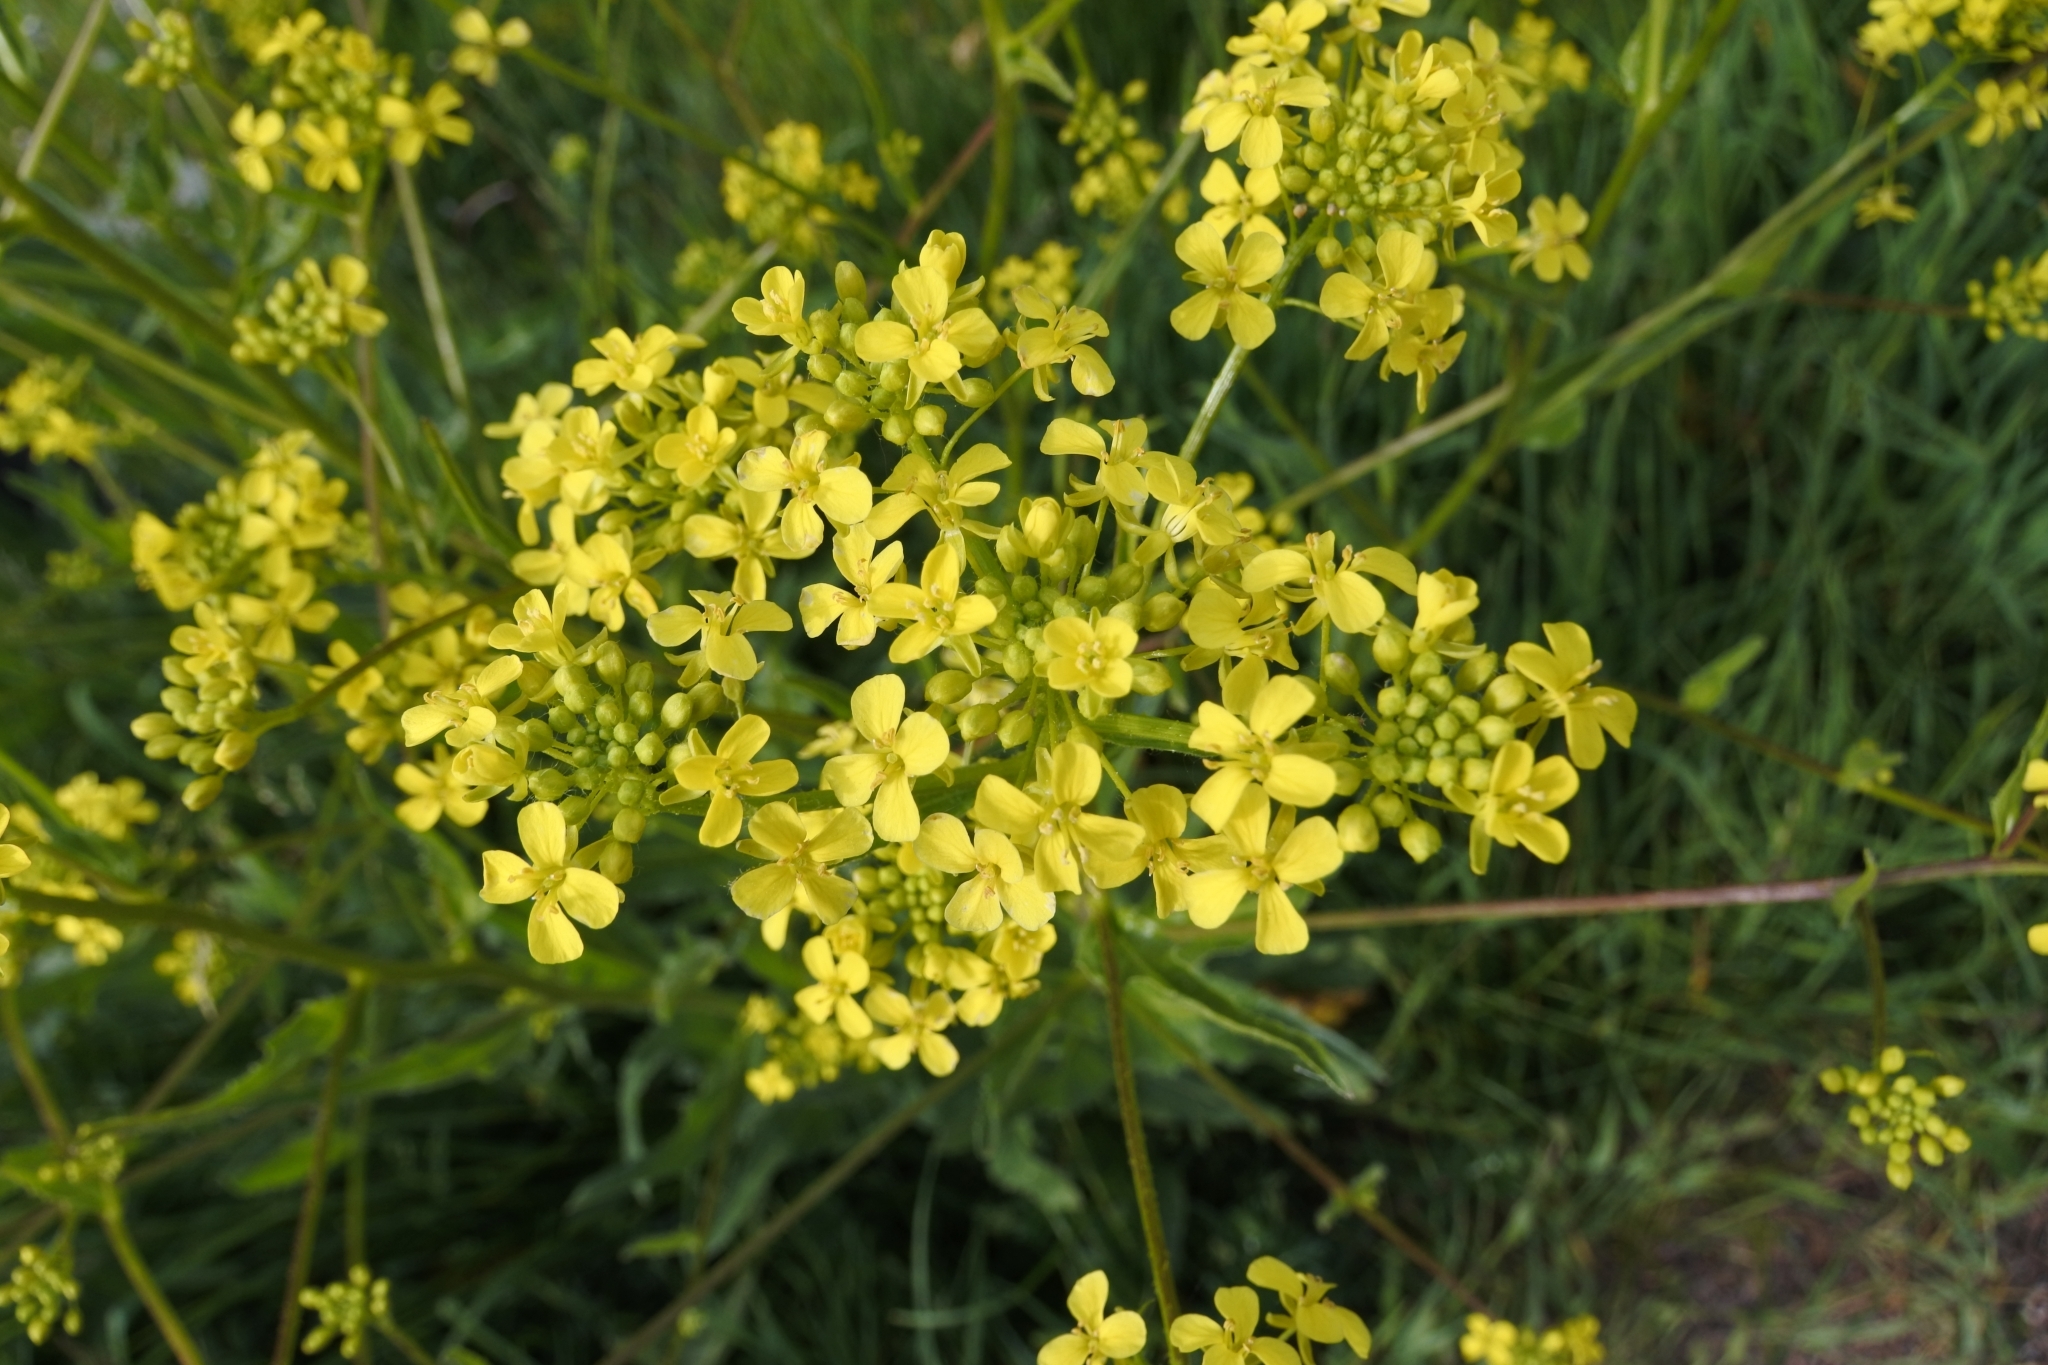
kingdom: Plantae
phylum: Tracheophyta
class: Magnoliopsida
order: Brassicales
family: Brassicaceae
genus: Bunias
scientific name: Bunias orientalis
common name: Warty-cabbage
